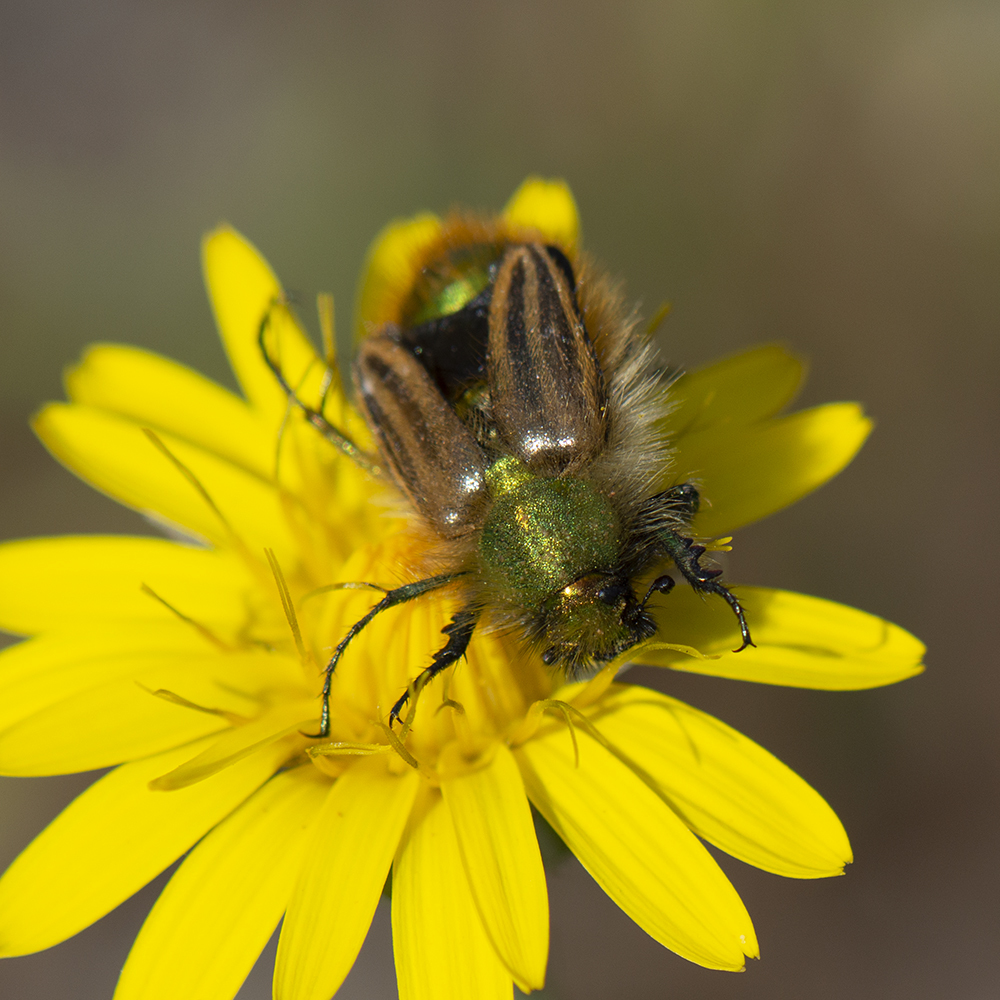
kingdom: Animalia
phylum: Arthropoda
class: Insecta
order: Coleoptera
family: Glaphyridae
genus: Eulasia
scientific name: Eulasia pareyssei
